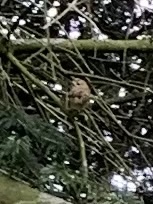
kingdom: Animalia
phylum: Chordata
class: Aves
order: Passeriformes
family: Regulidae
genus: Regulus
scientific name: Regulus regulus
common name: Goldcrest
